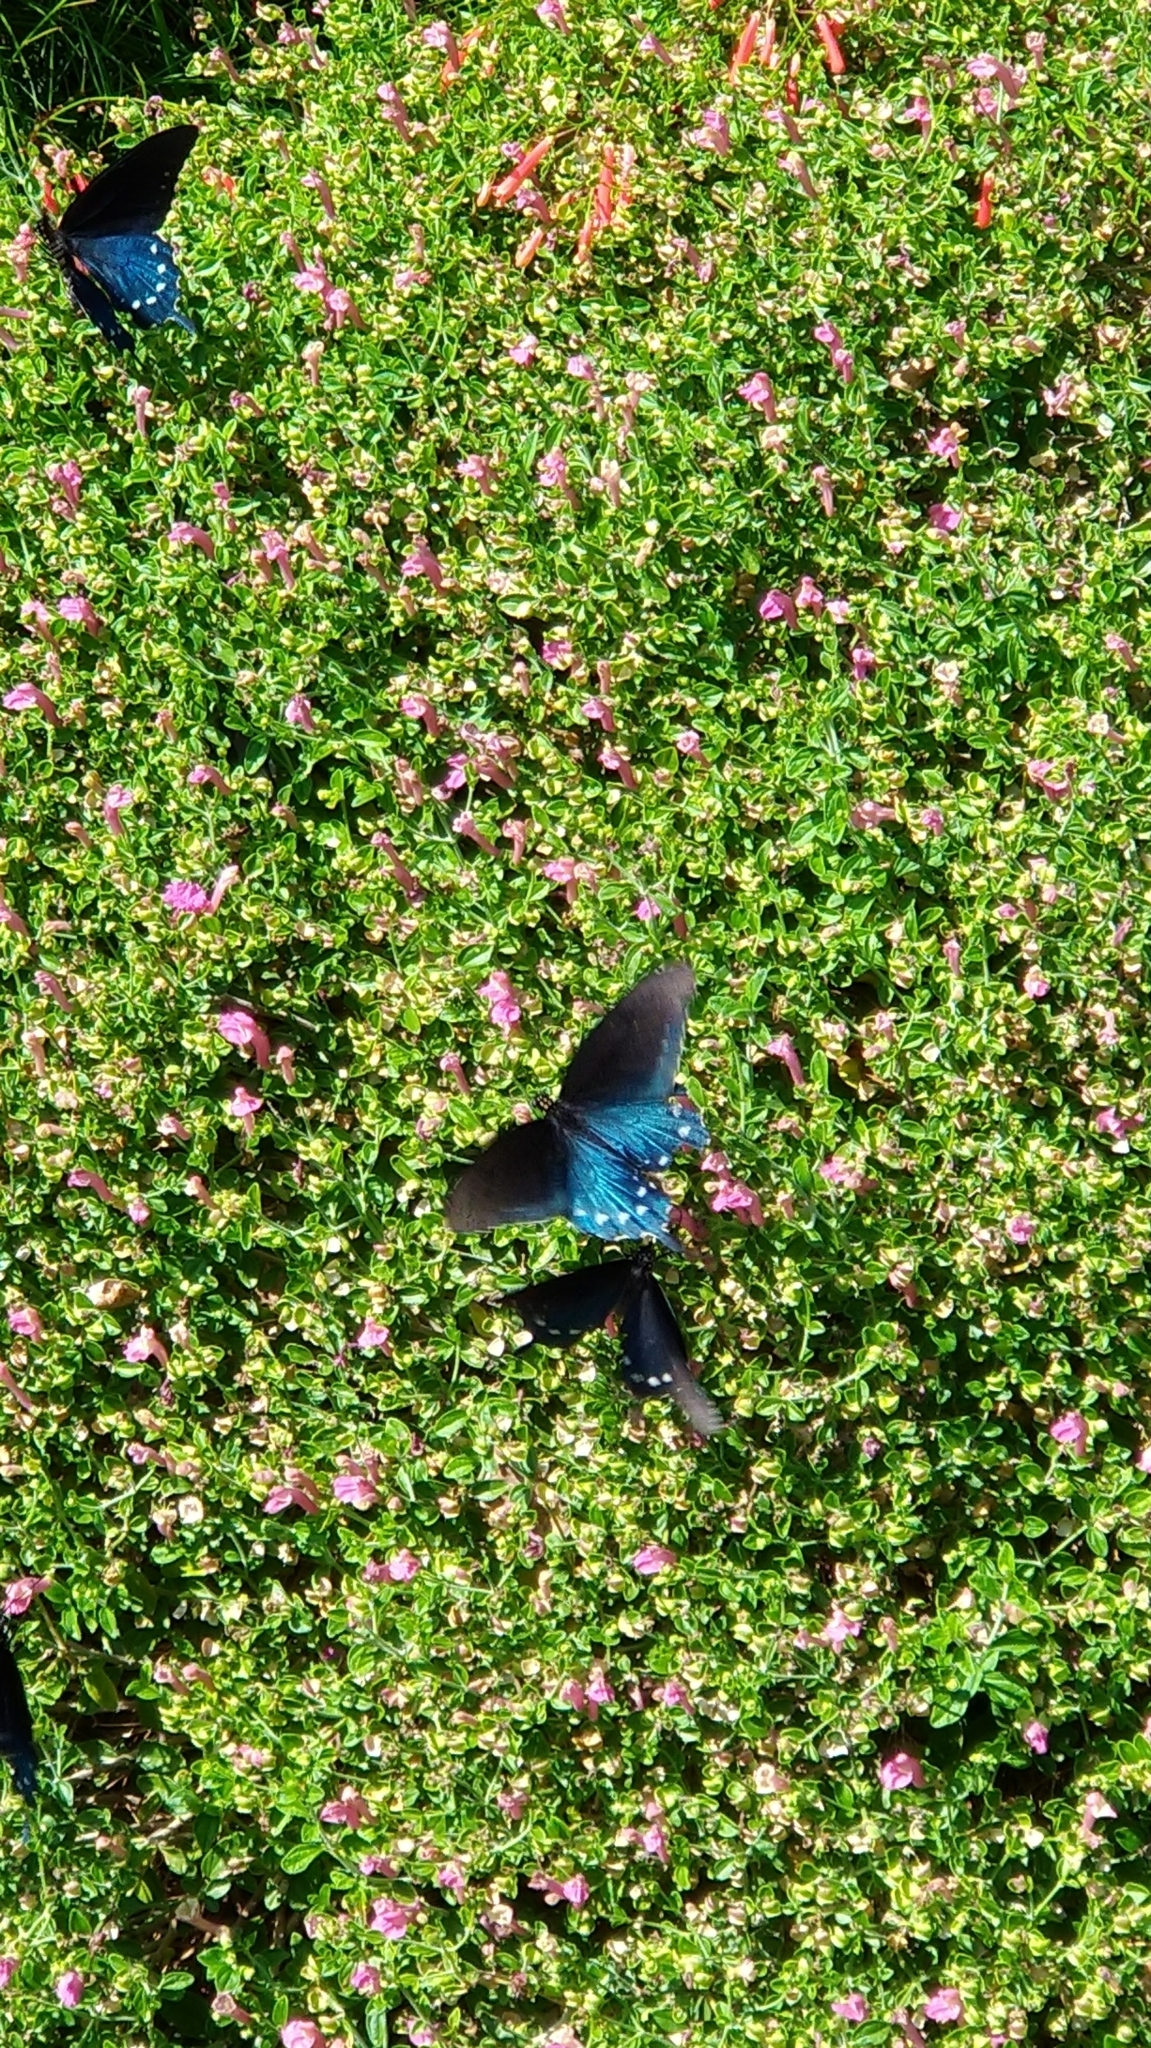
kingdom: Animalia
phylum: Arthropoda
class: Insecta
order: Lepidoptera
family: Papilionidae
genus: Battus
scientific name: Battus philenor
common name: Pipevine swallowtail
